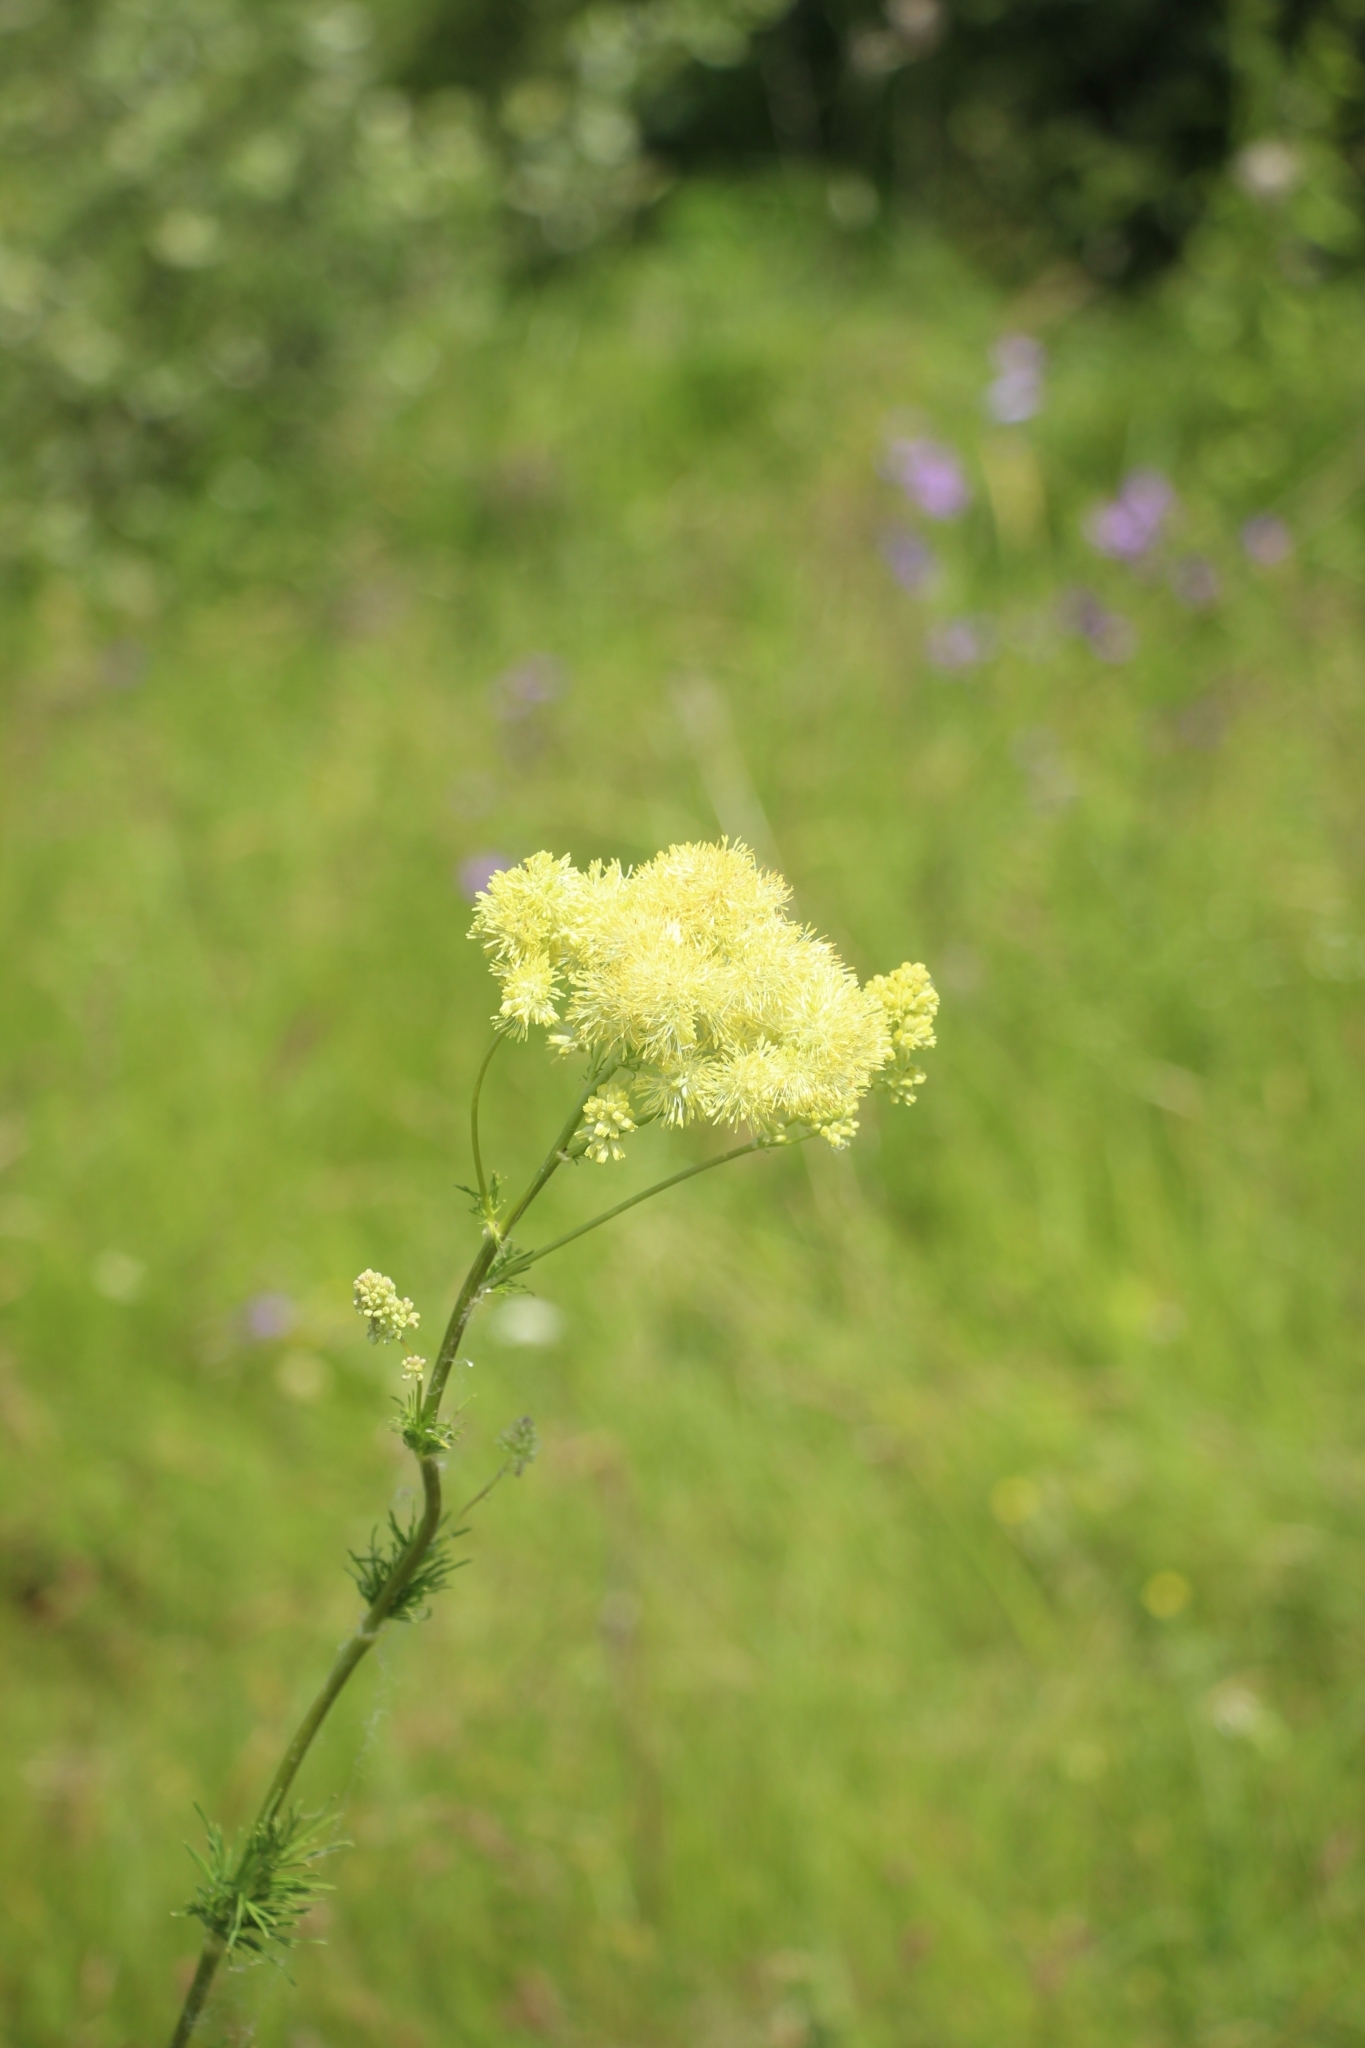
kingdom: Plantae
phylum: Tracheophyta
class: Magnoliopsida
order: Ranunculales
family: Ranunculaceae
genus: Thalictrum
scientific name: Thalictrum lucidum
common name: Shining meadow-rue
